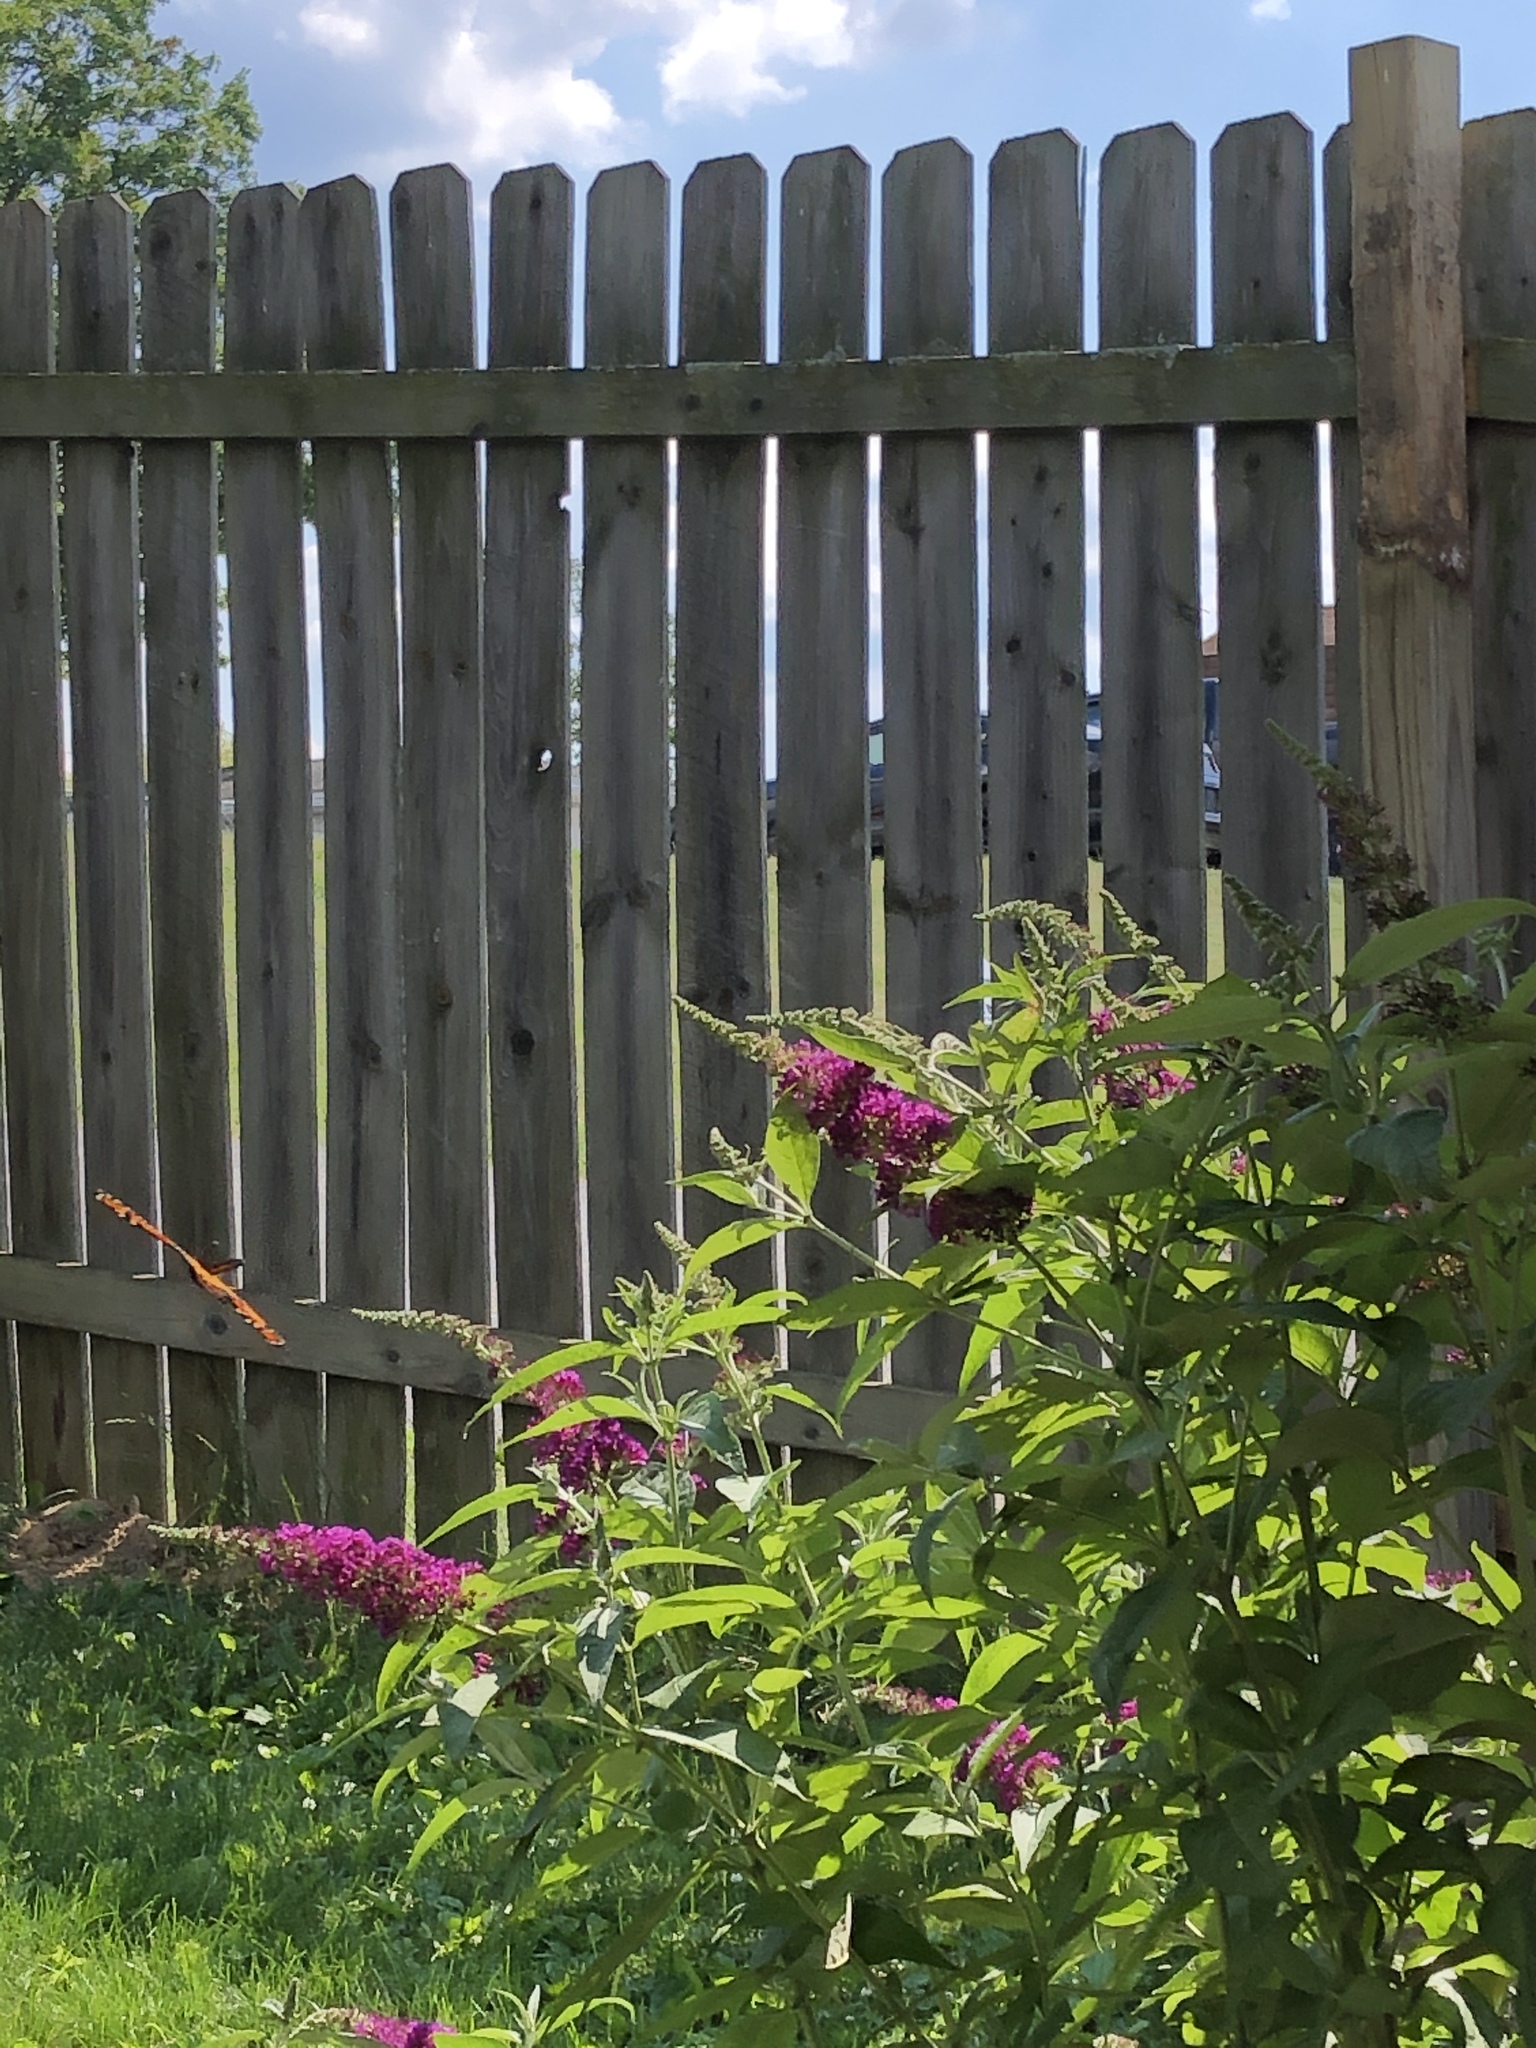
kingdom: Animalia
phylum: Arthropoda
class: Insecta
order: Lepidoptera
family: Nymphalidae
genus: Danaus
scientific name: Danaus plexippus
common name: Monarch
